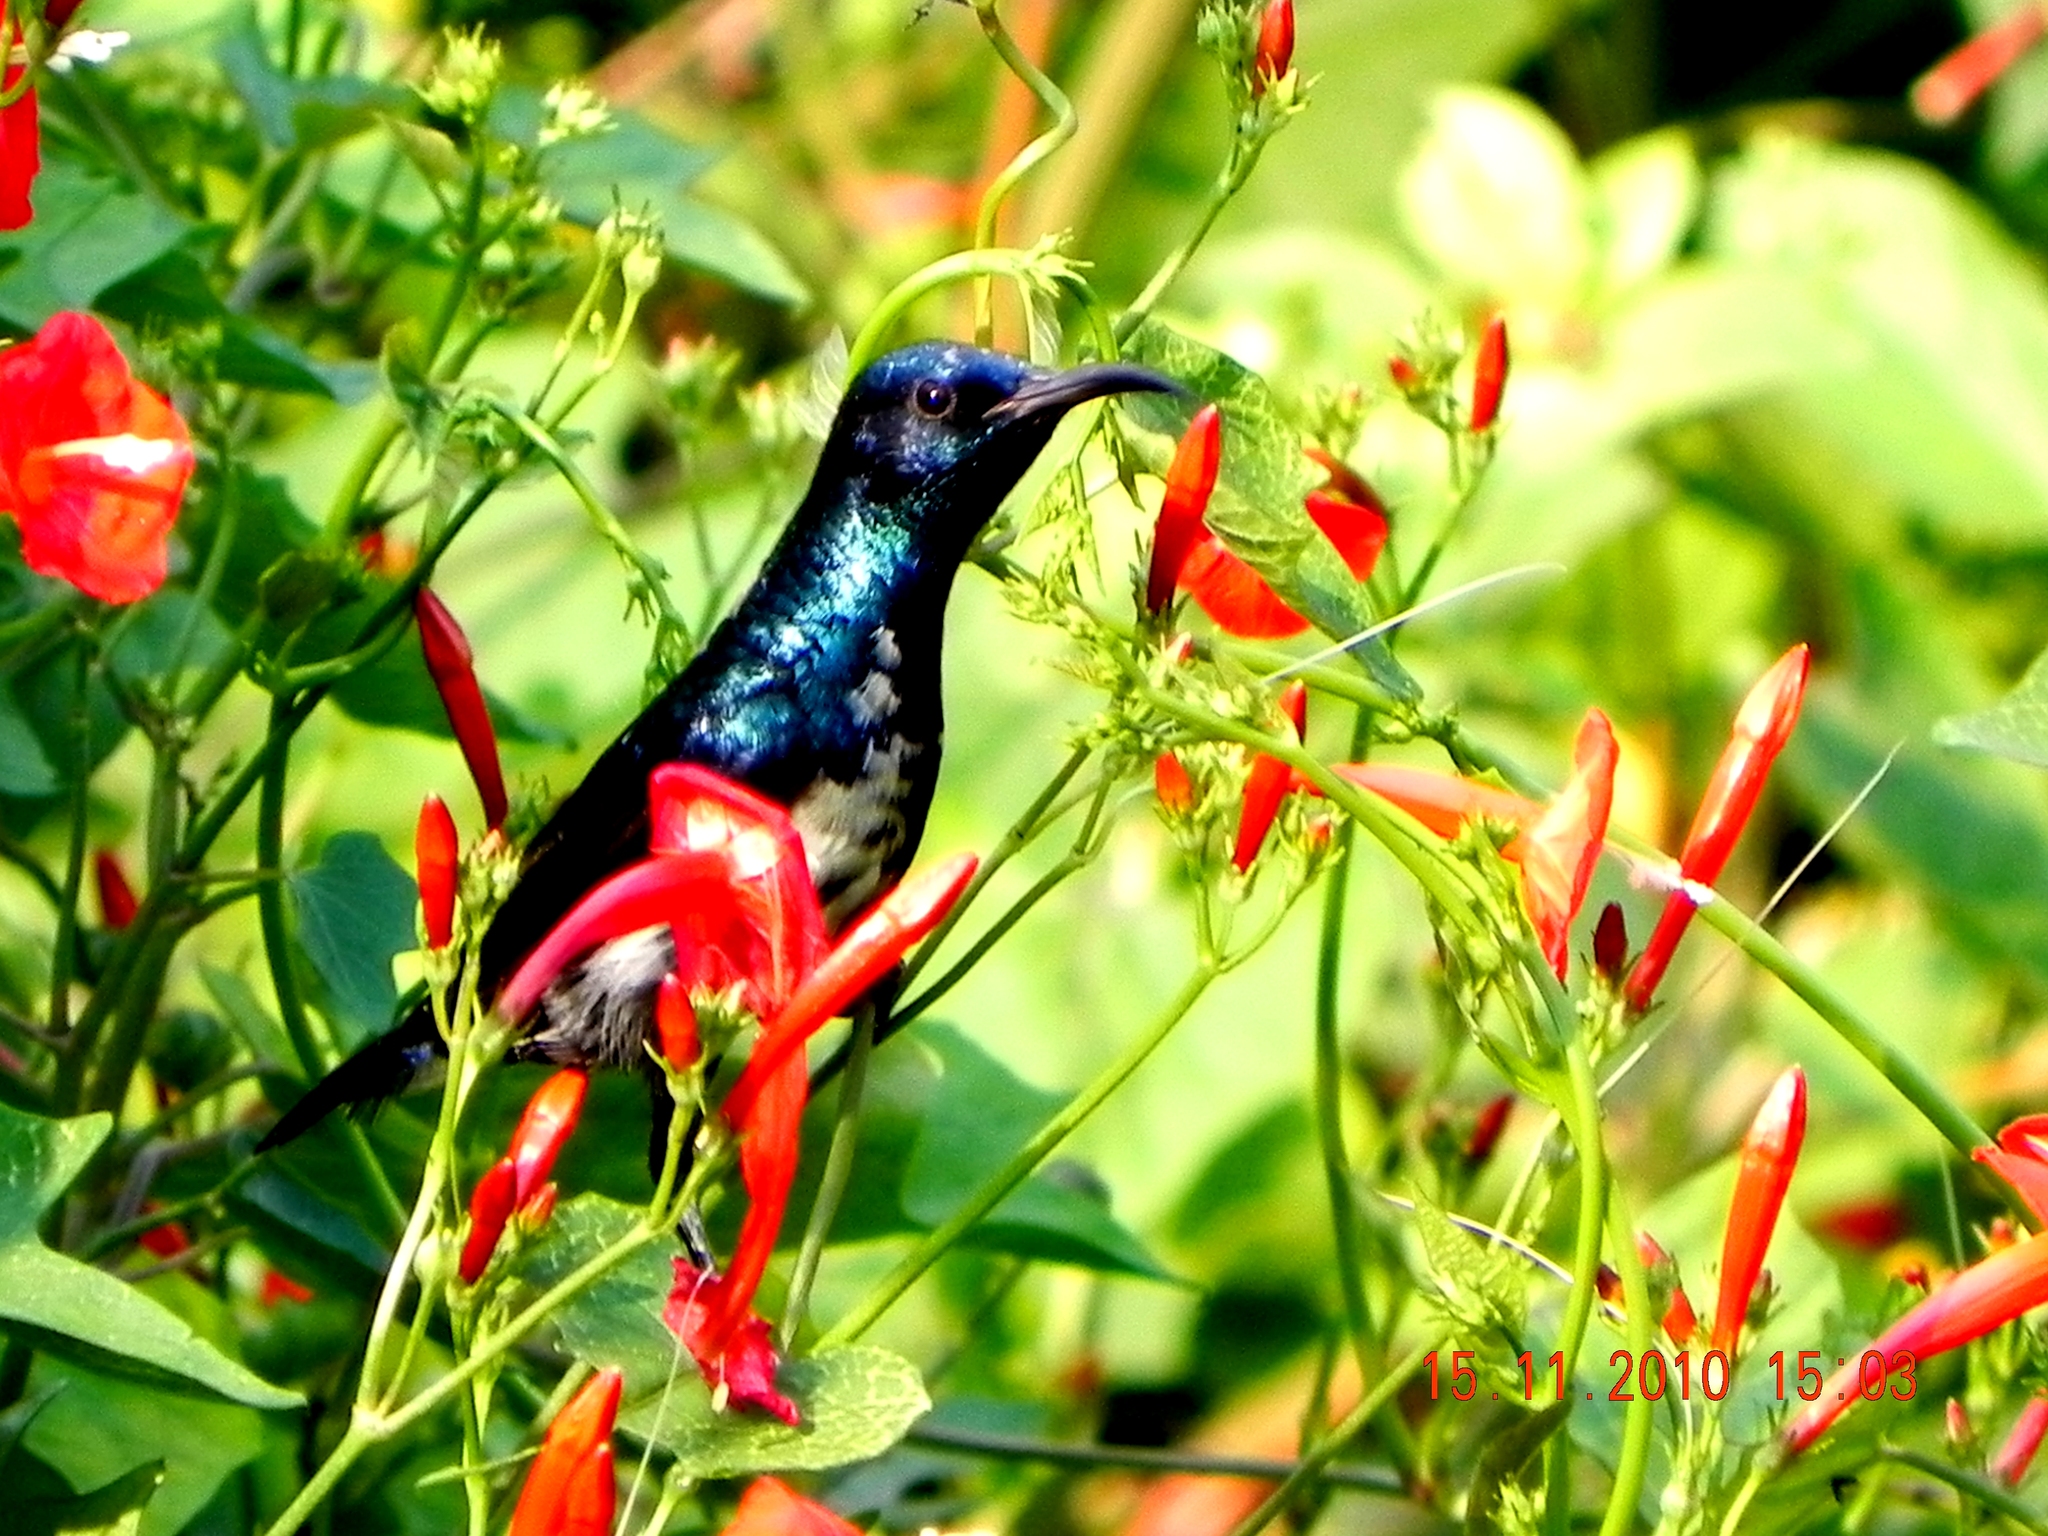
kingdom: Animalia
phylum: Chordata
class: Aves
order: Passeriformes
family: Nectariniidae
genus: Cinnyris
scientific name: Cinnyris asiaticus
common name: Purple sunbird
